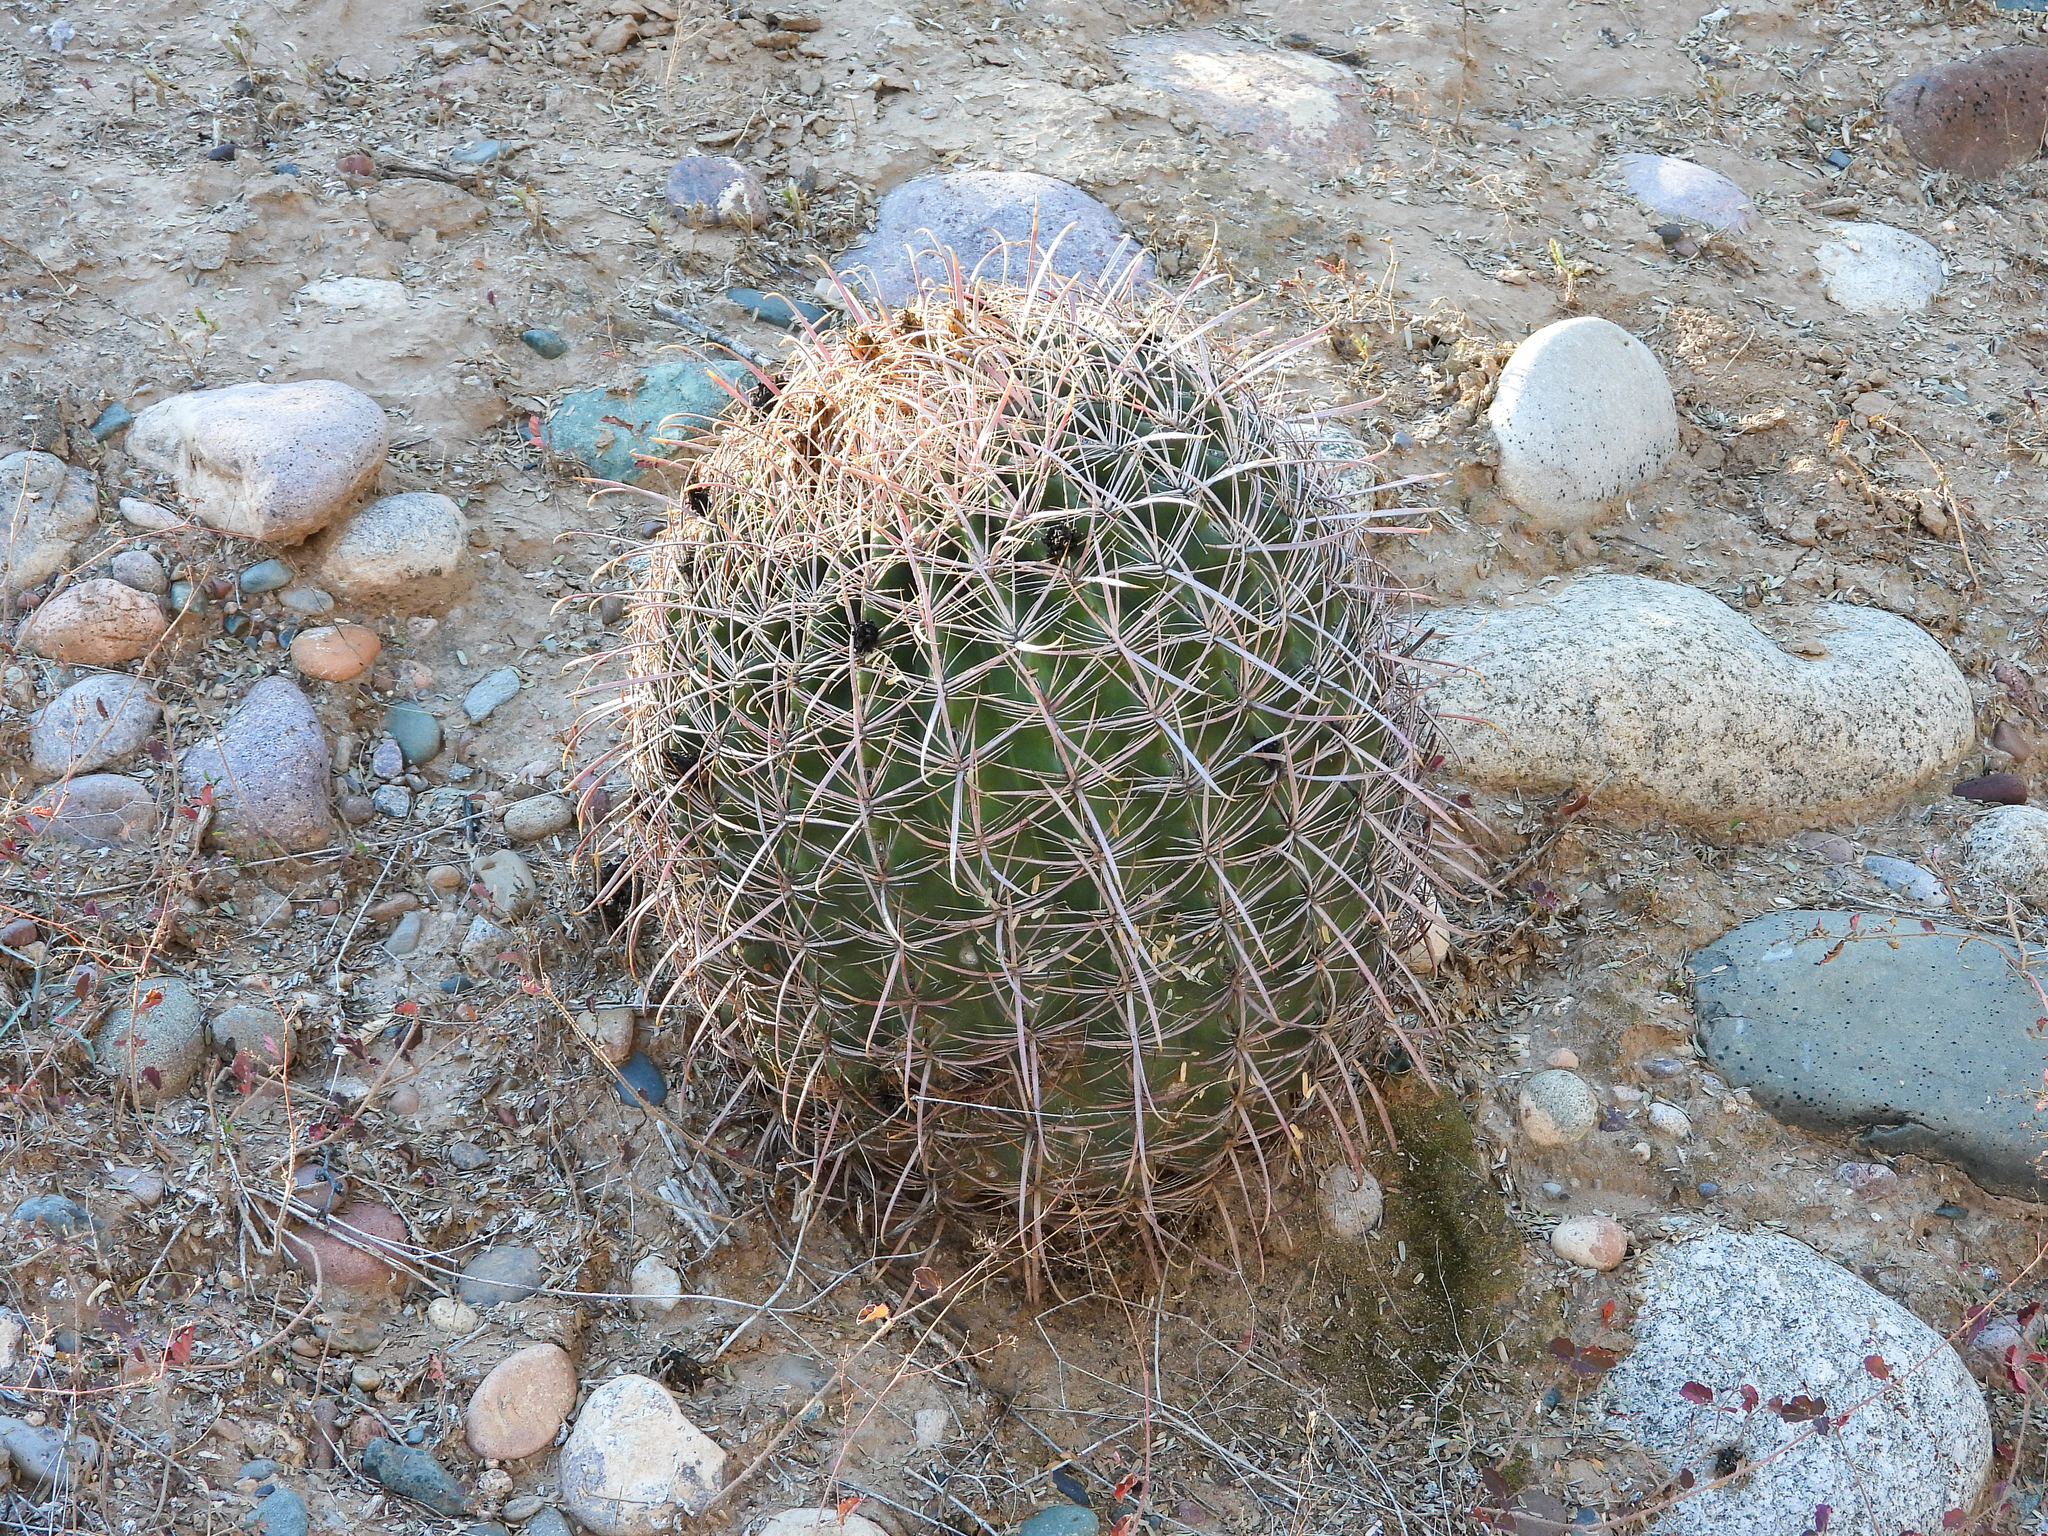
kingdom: Plantae
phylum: Tracheophyta
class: Magnoliopsida
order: Caryophyllales
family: Cactaceae
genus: Ferocactus
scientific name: Ferocactus cylindraceus
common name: California barrel cactus
